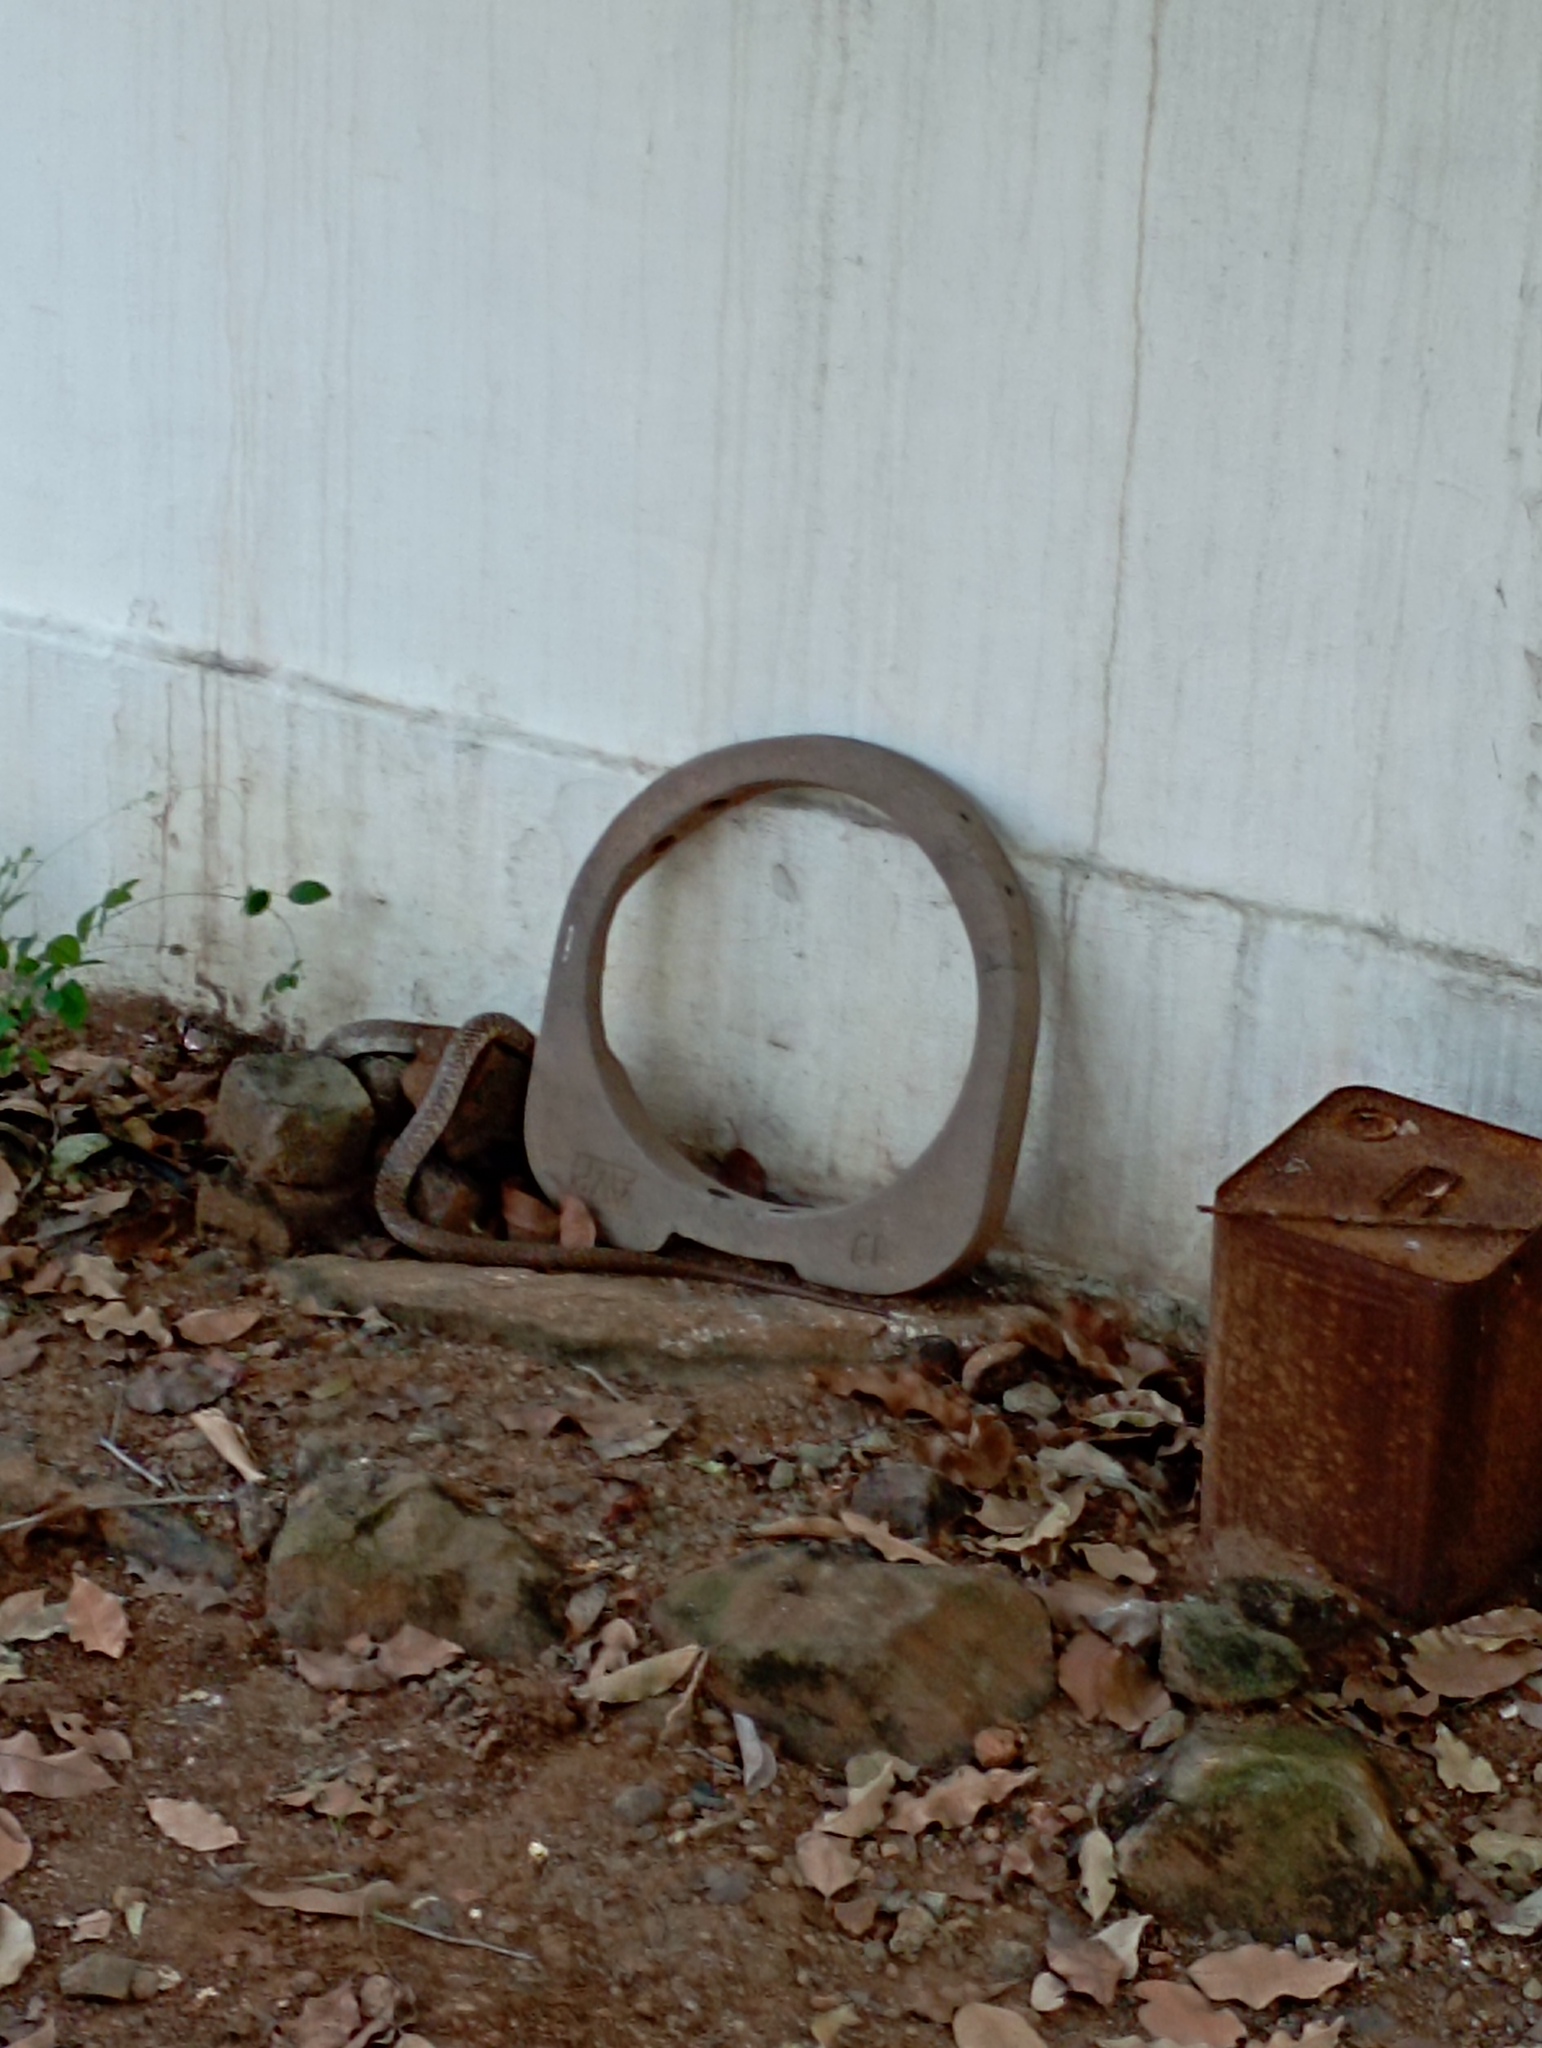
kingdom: Animalia
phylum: Chordata
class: Squamata
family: Elapidae
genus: Naja
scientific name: Naja naja
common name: Indian cobra
